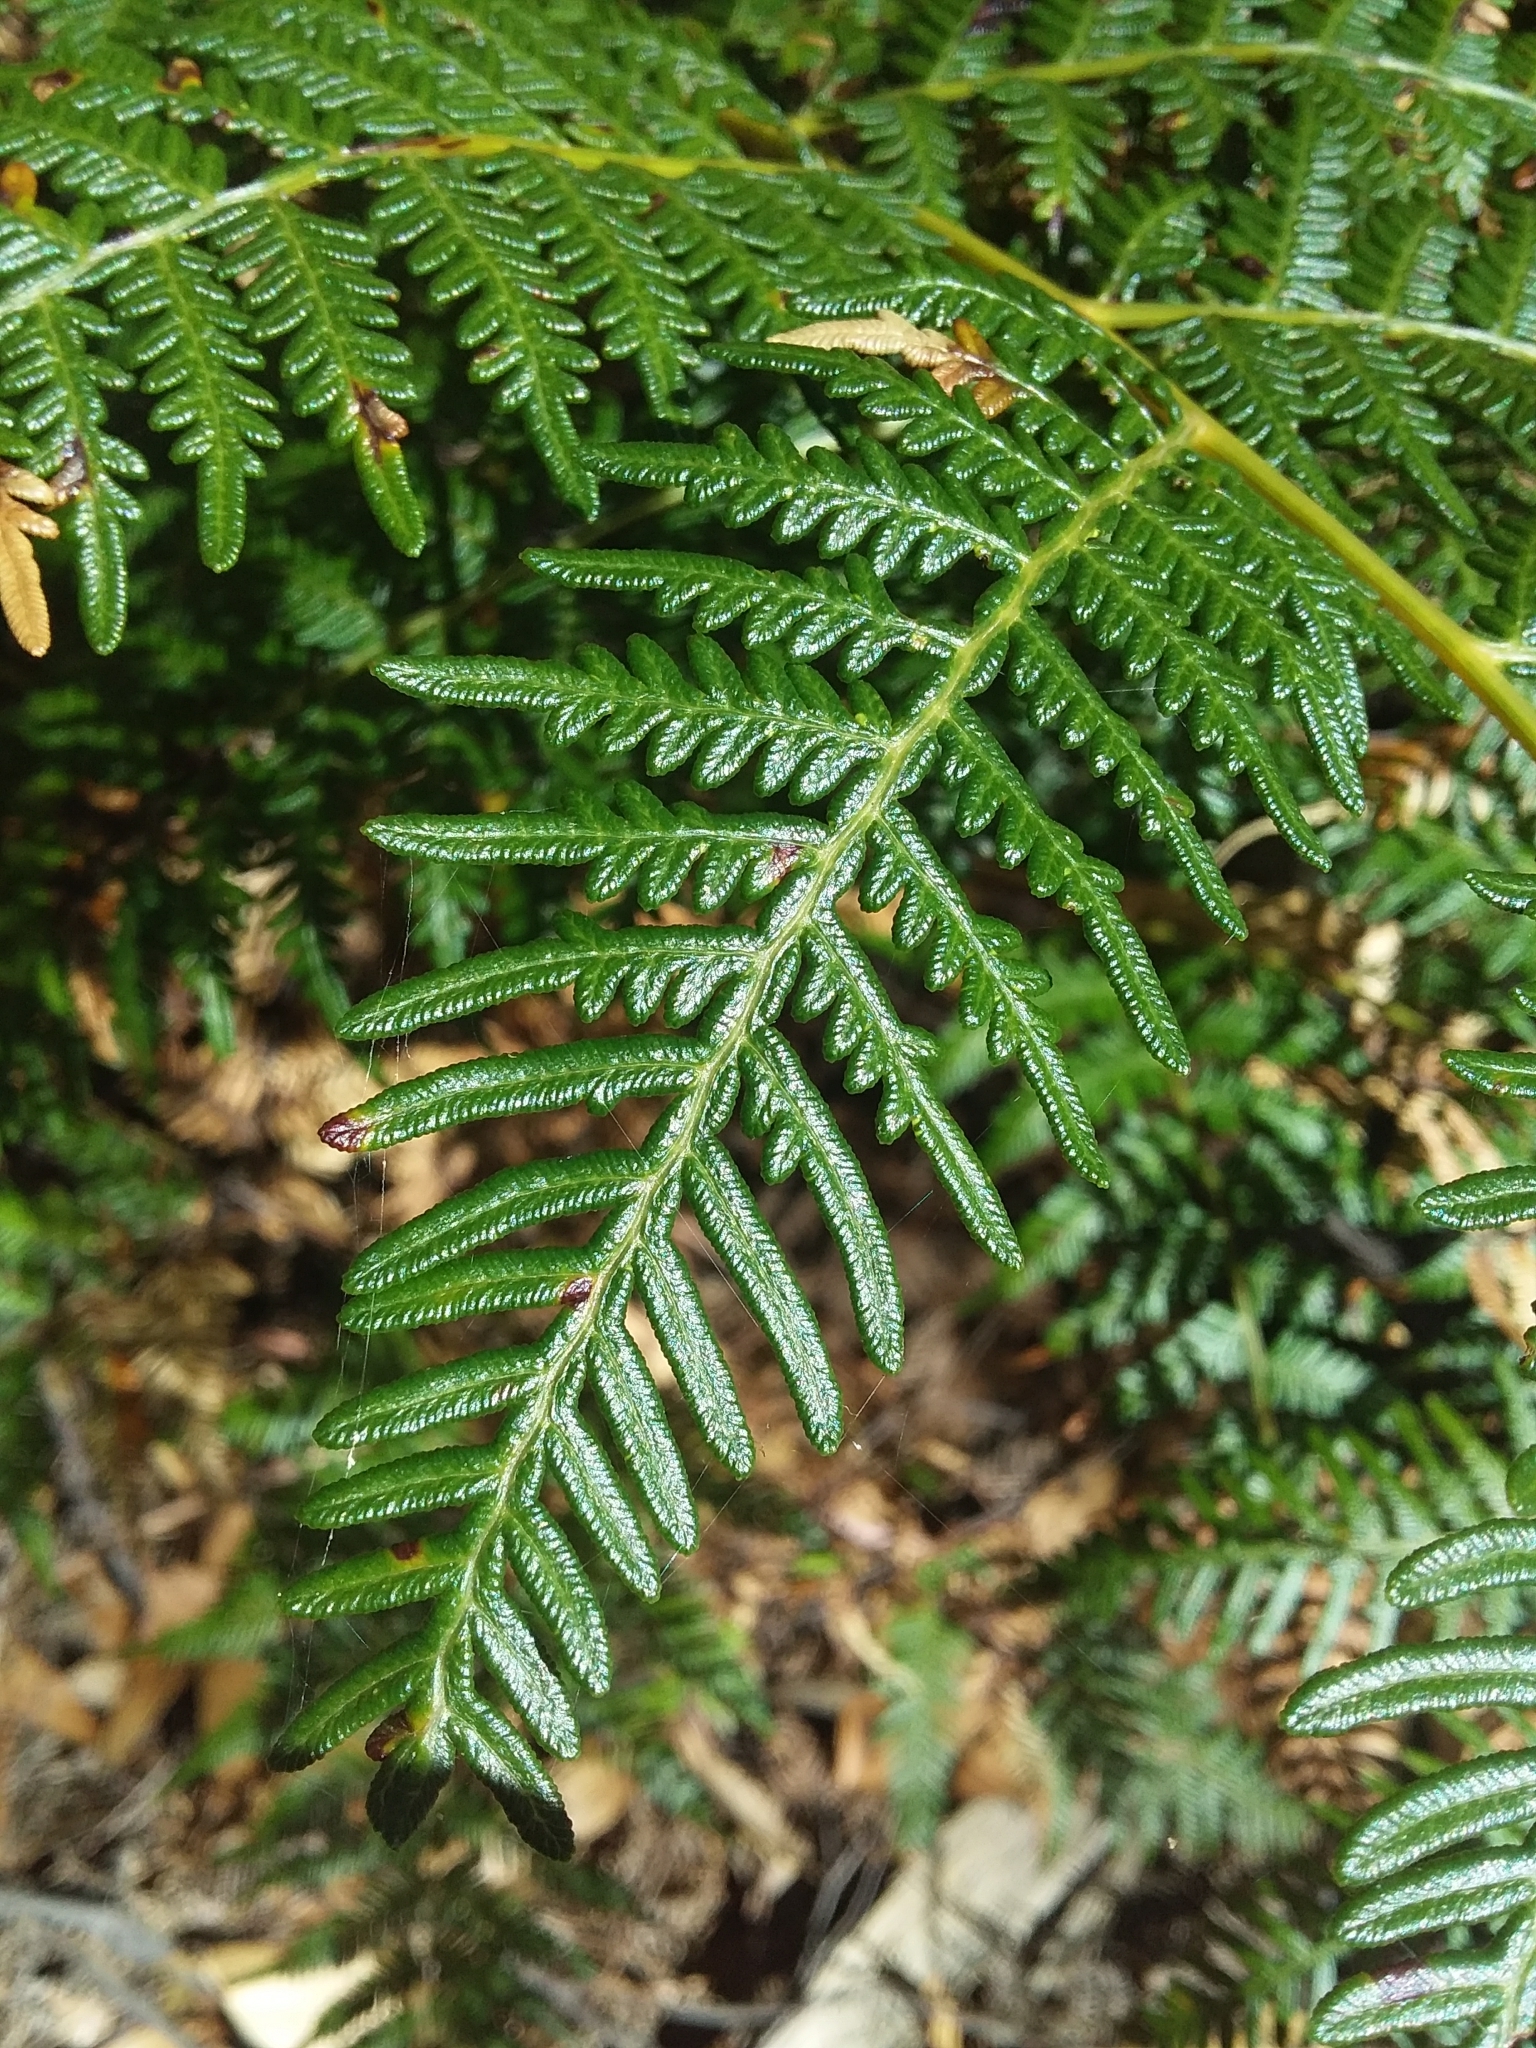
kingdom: Plantae
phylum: Tracheophyta
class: Polypodiopsida
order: Polypodiales
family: Dennstaedtiaceae
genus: Pteridium
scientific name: Pteridium esculentum
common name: Bracken fern
